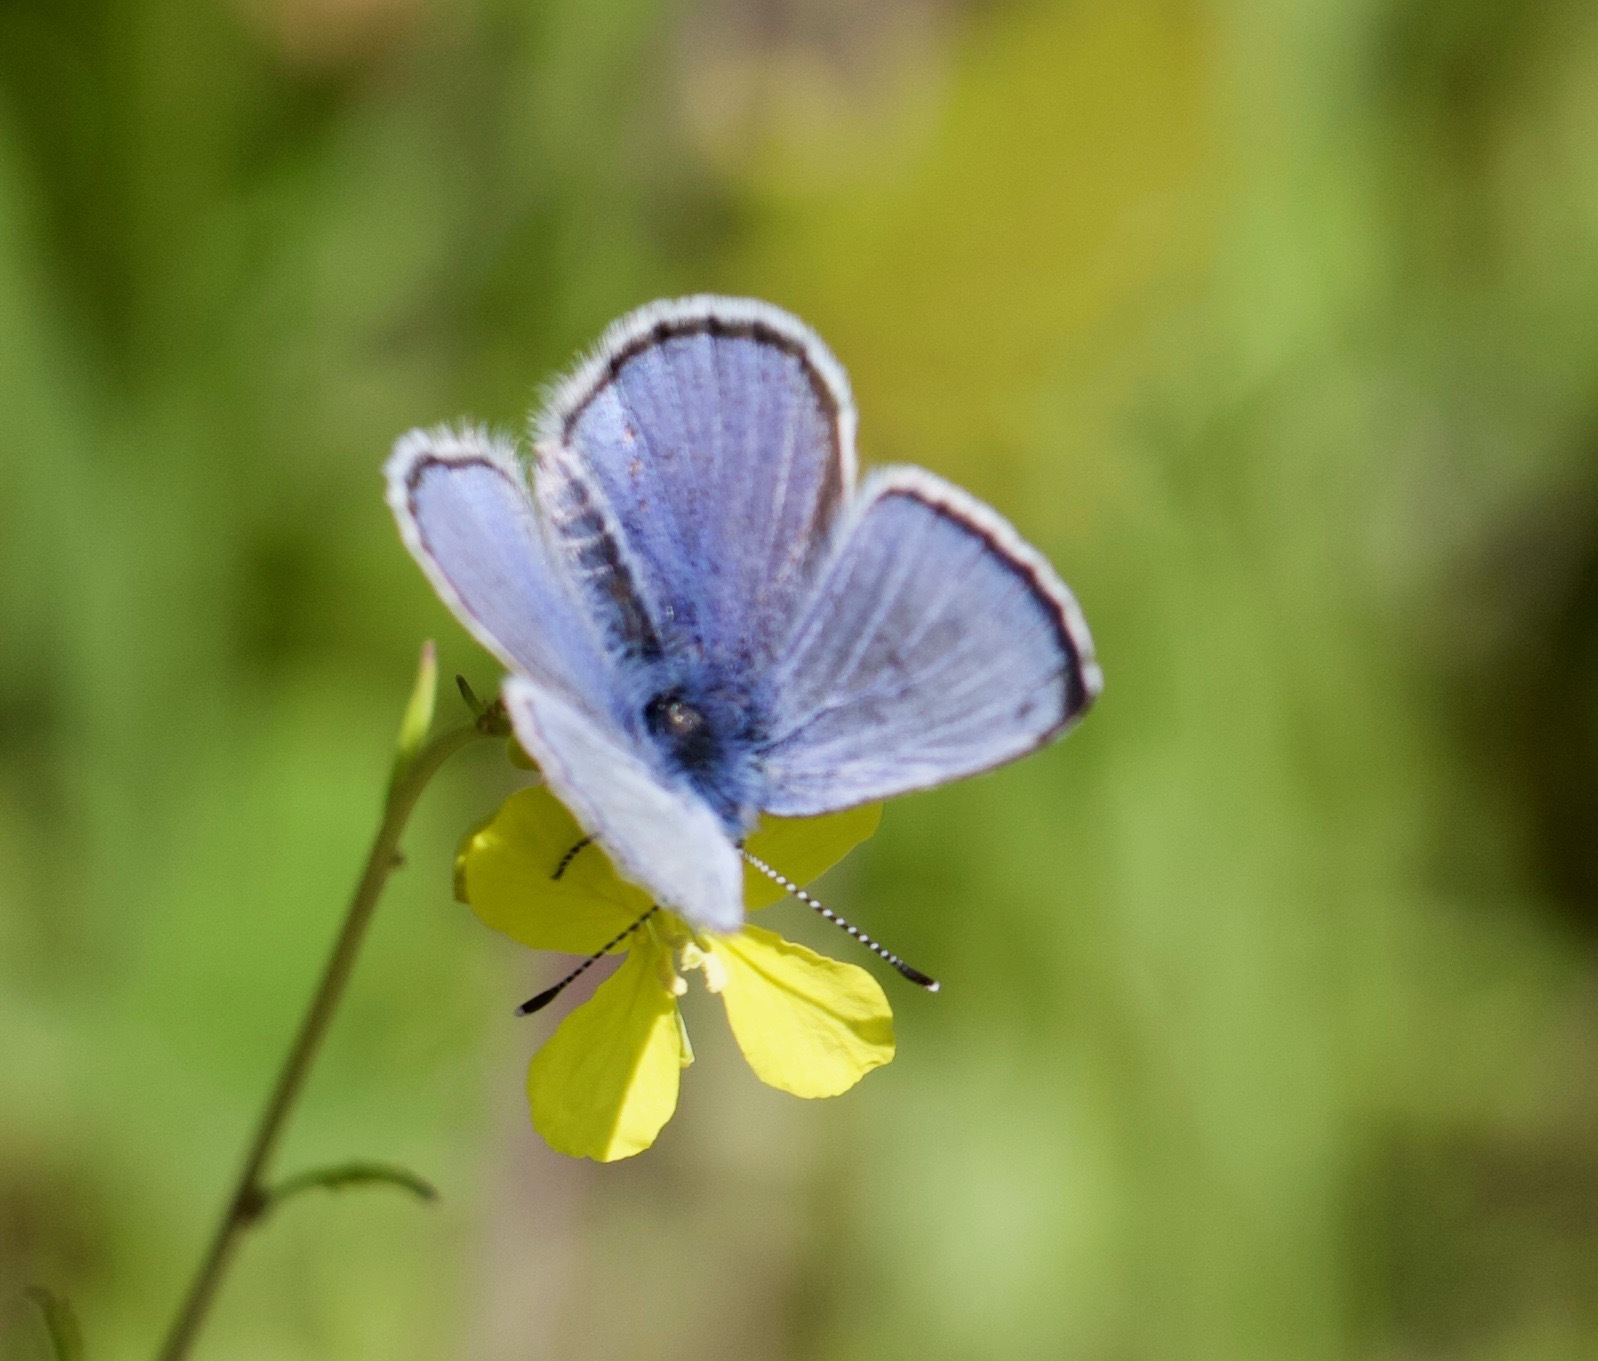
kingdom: Animalia
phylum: Arthropoda
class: Insecta
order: Lepidoptera
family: Lycaenidae
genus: Glaucopsyche
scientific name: Glaucopsyche lygdamus
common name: Silvery blue
